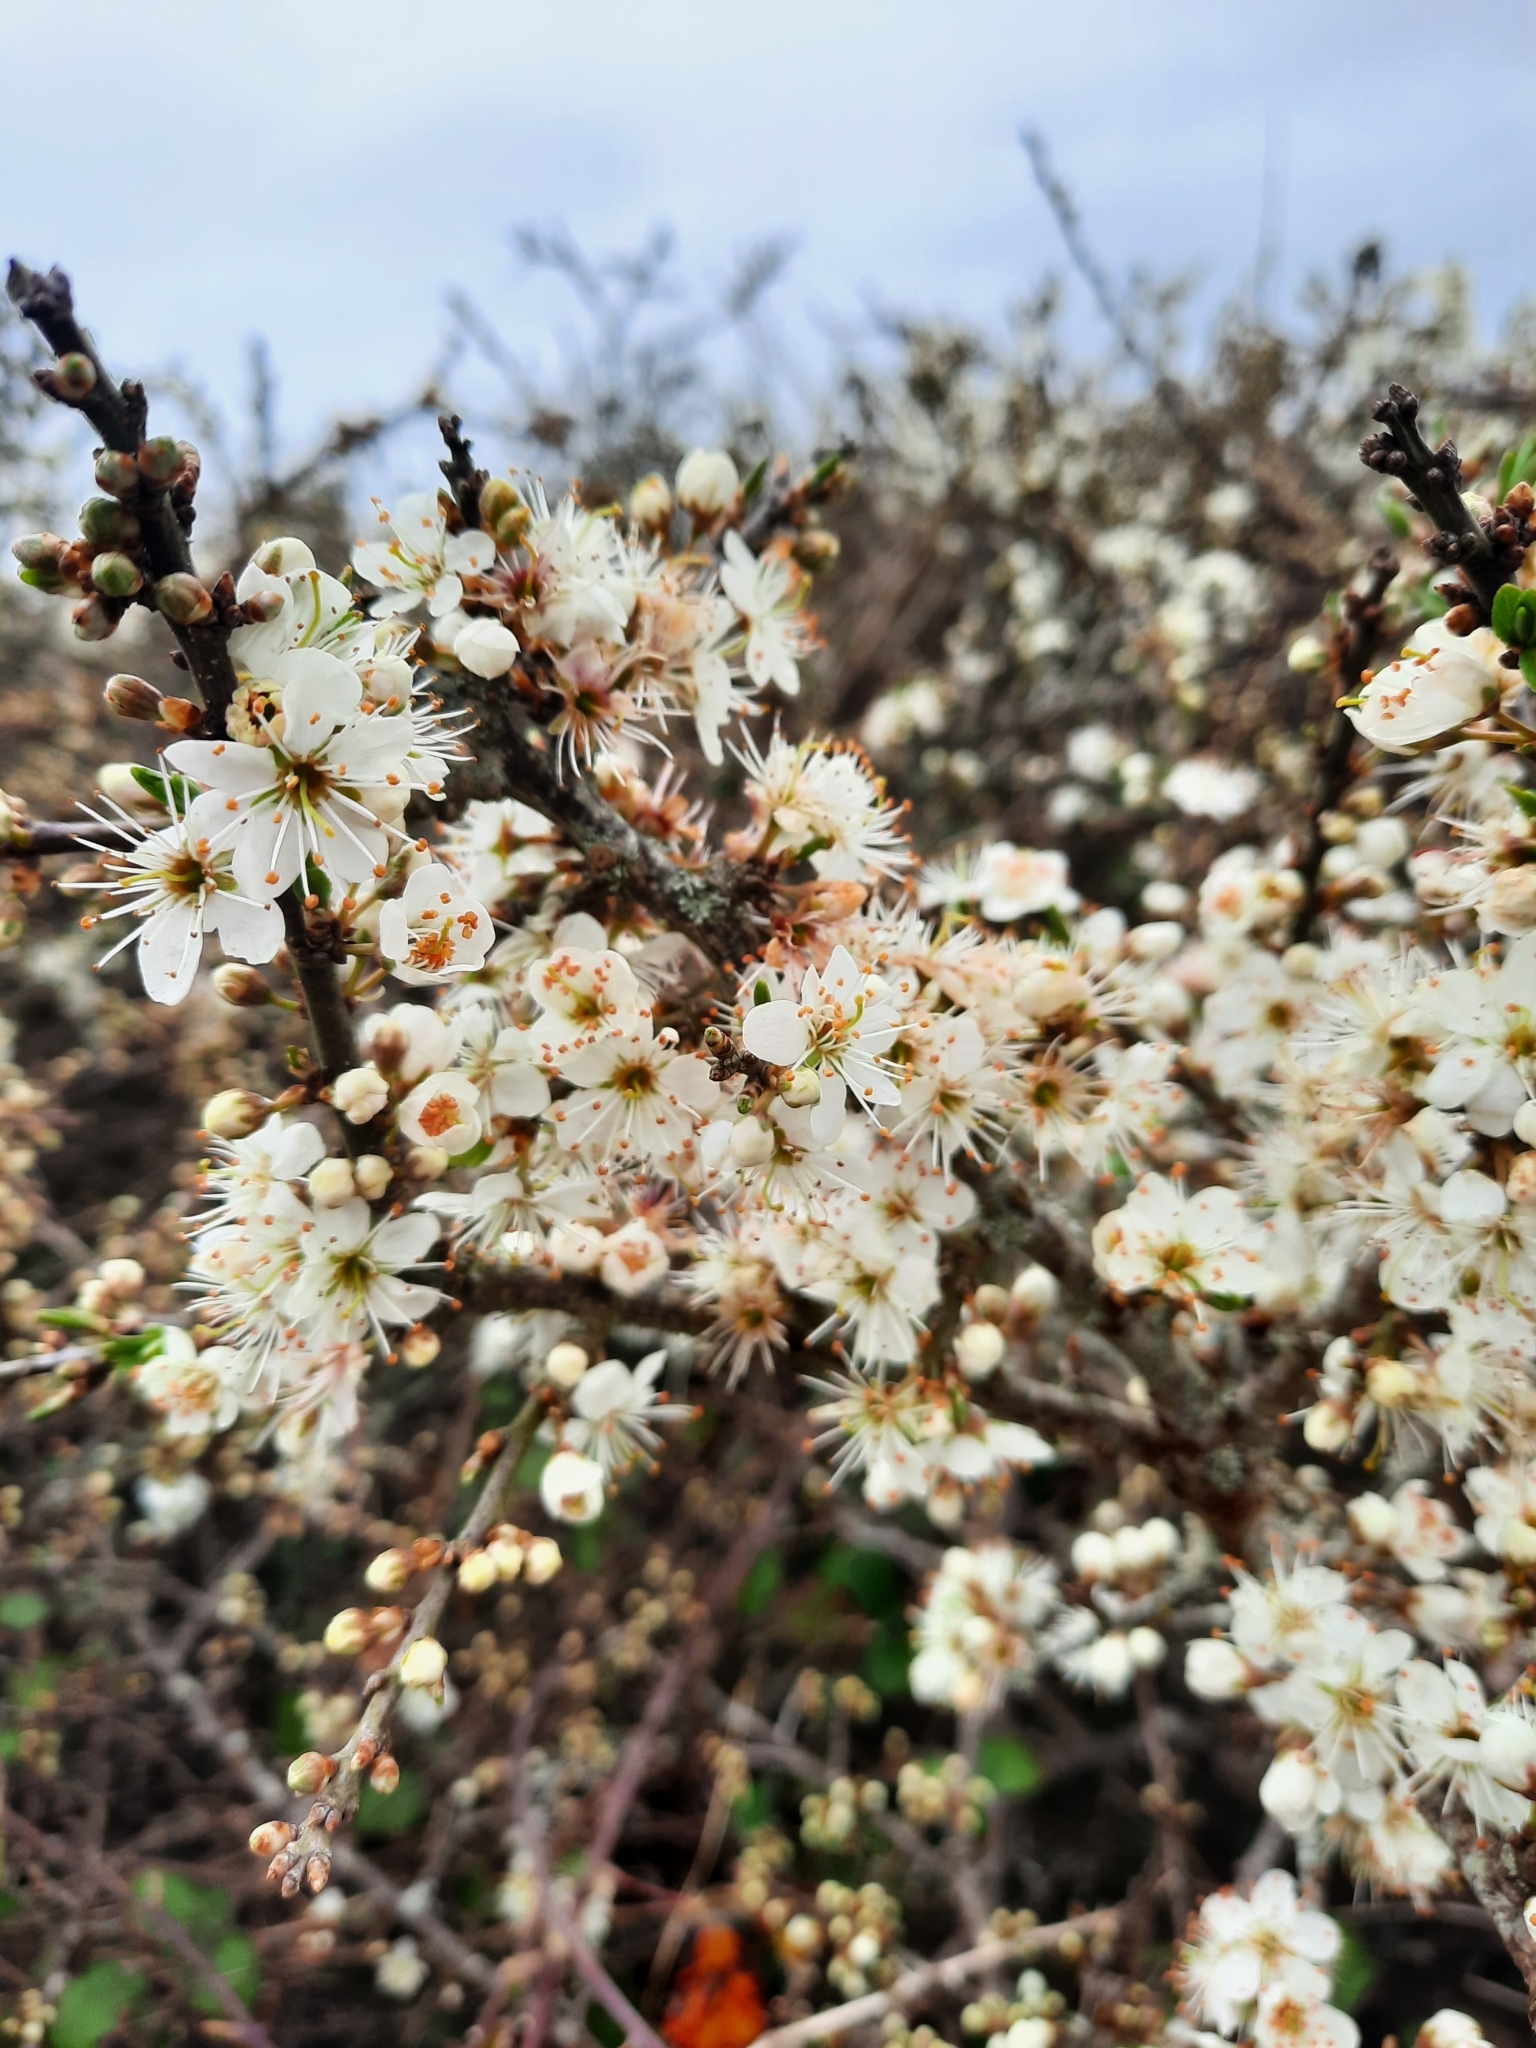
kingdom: Plantae
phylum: Tracheophyta
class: Magnoliopsida
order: Rosales
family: Rosaceae
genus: Prunus
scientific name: Prunus spinosa
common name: Blackthorn
